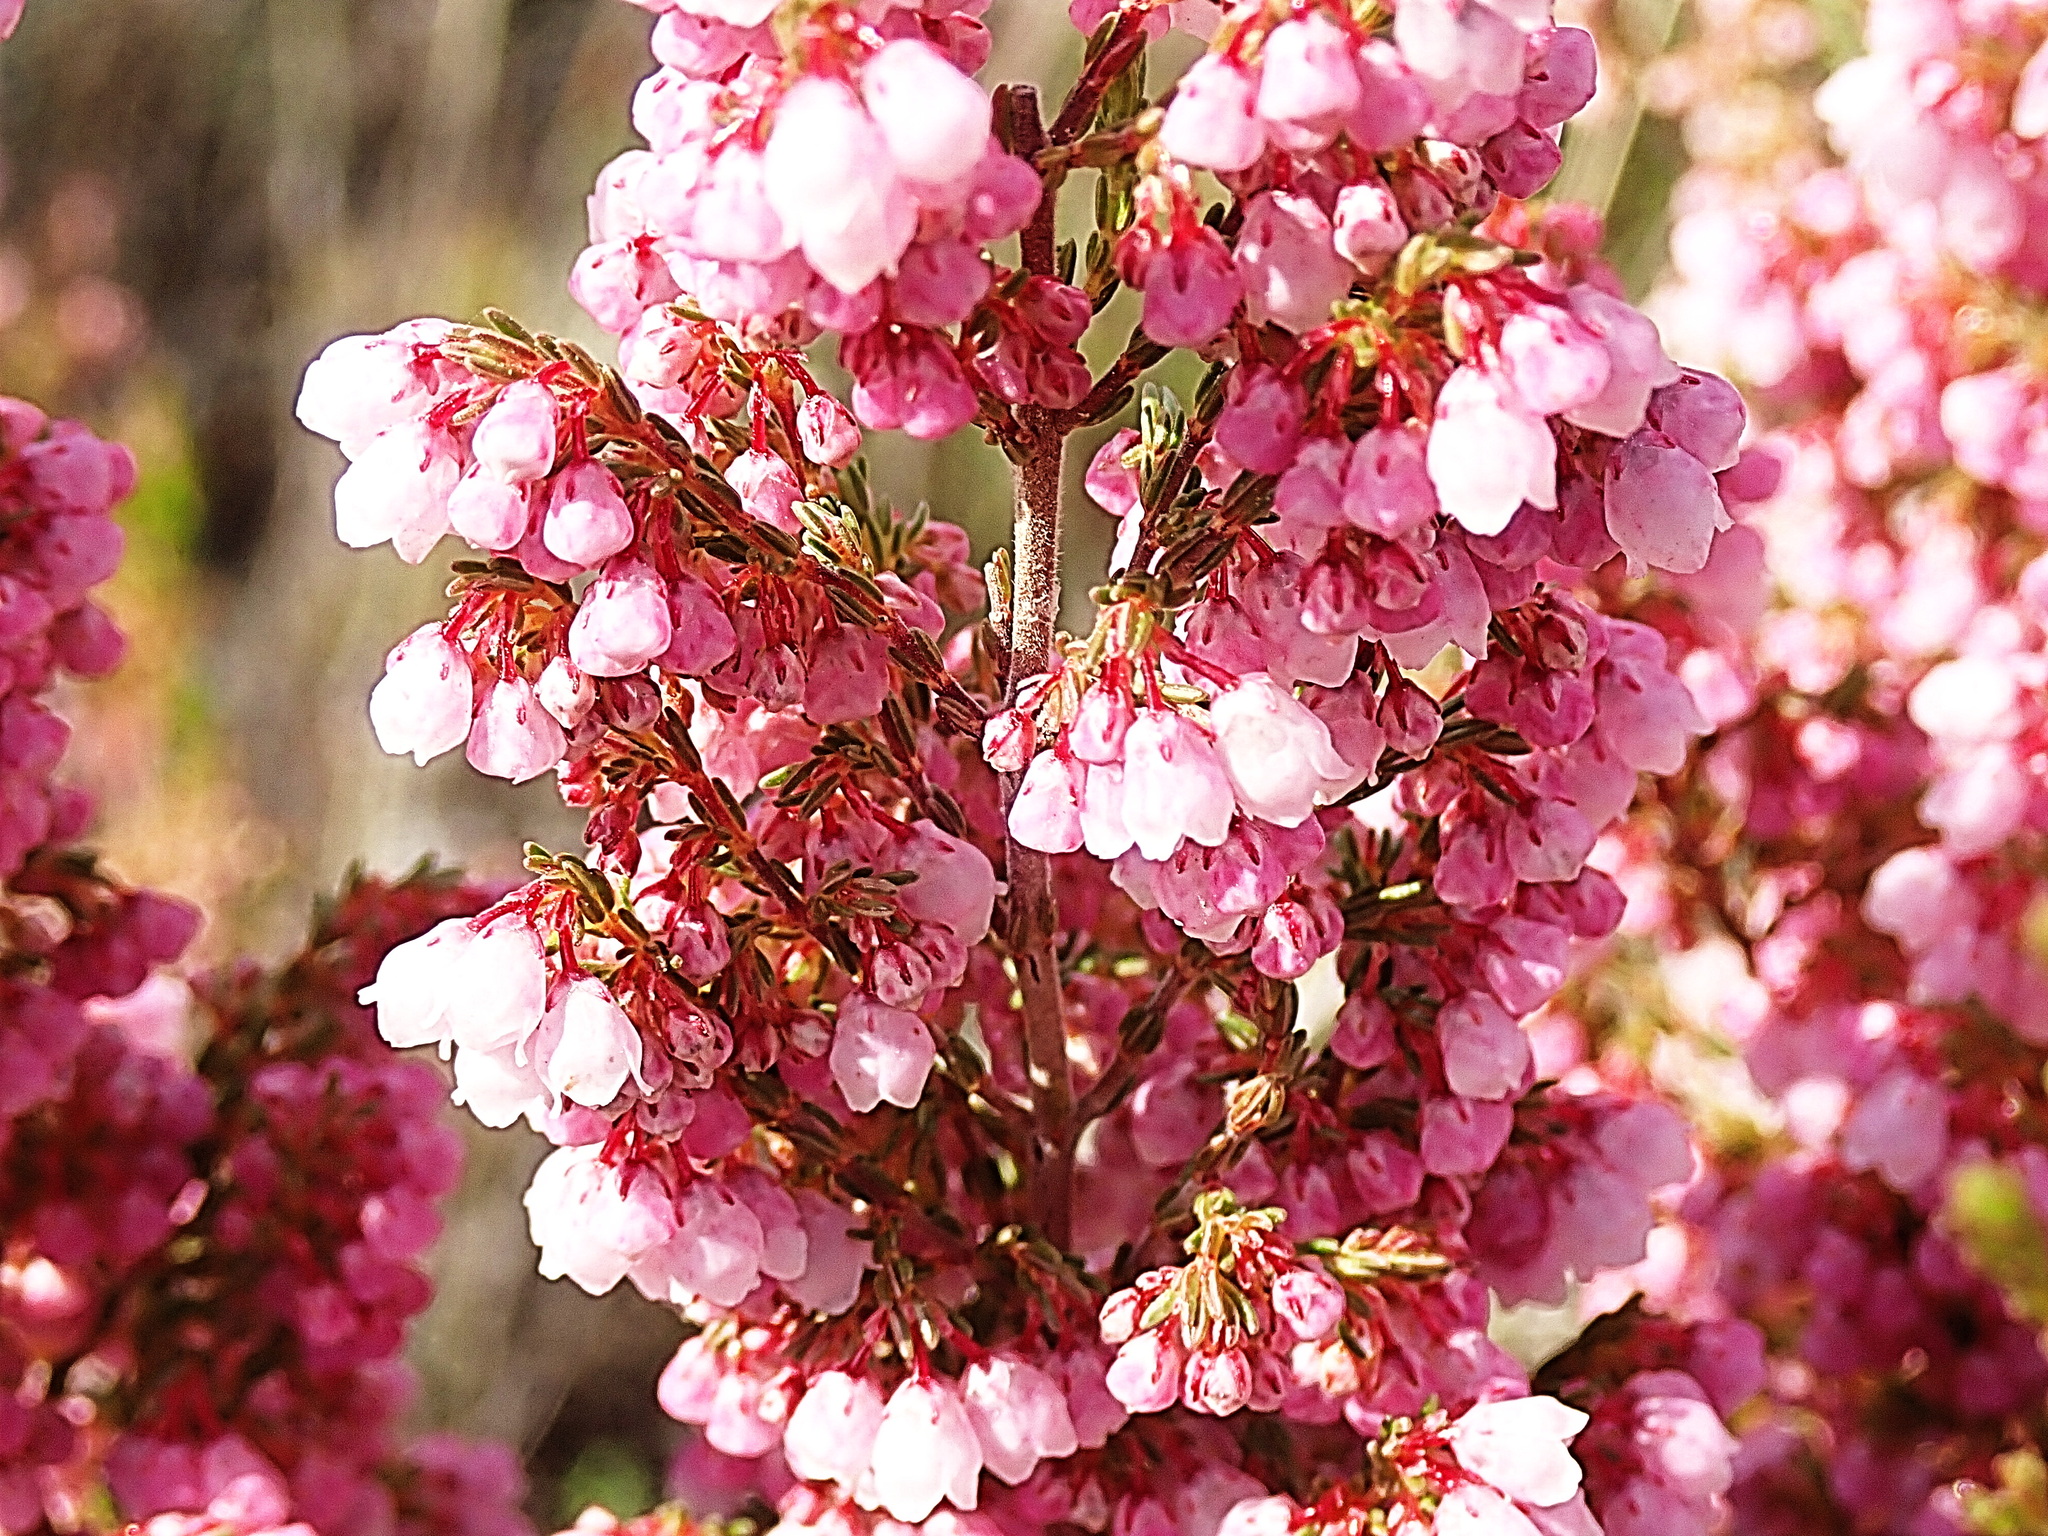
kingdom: Plantae
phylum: Tracheophyta
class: Magnoliopsida
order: Ericales
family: Ericaceae
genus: Erica
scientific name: Erica quadrangularis
